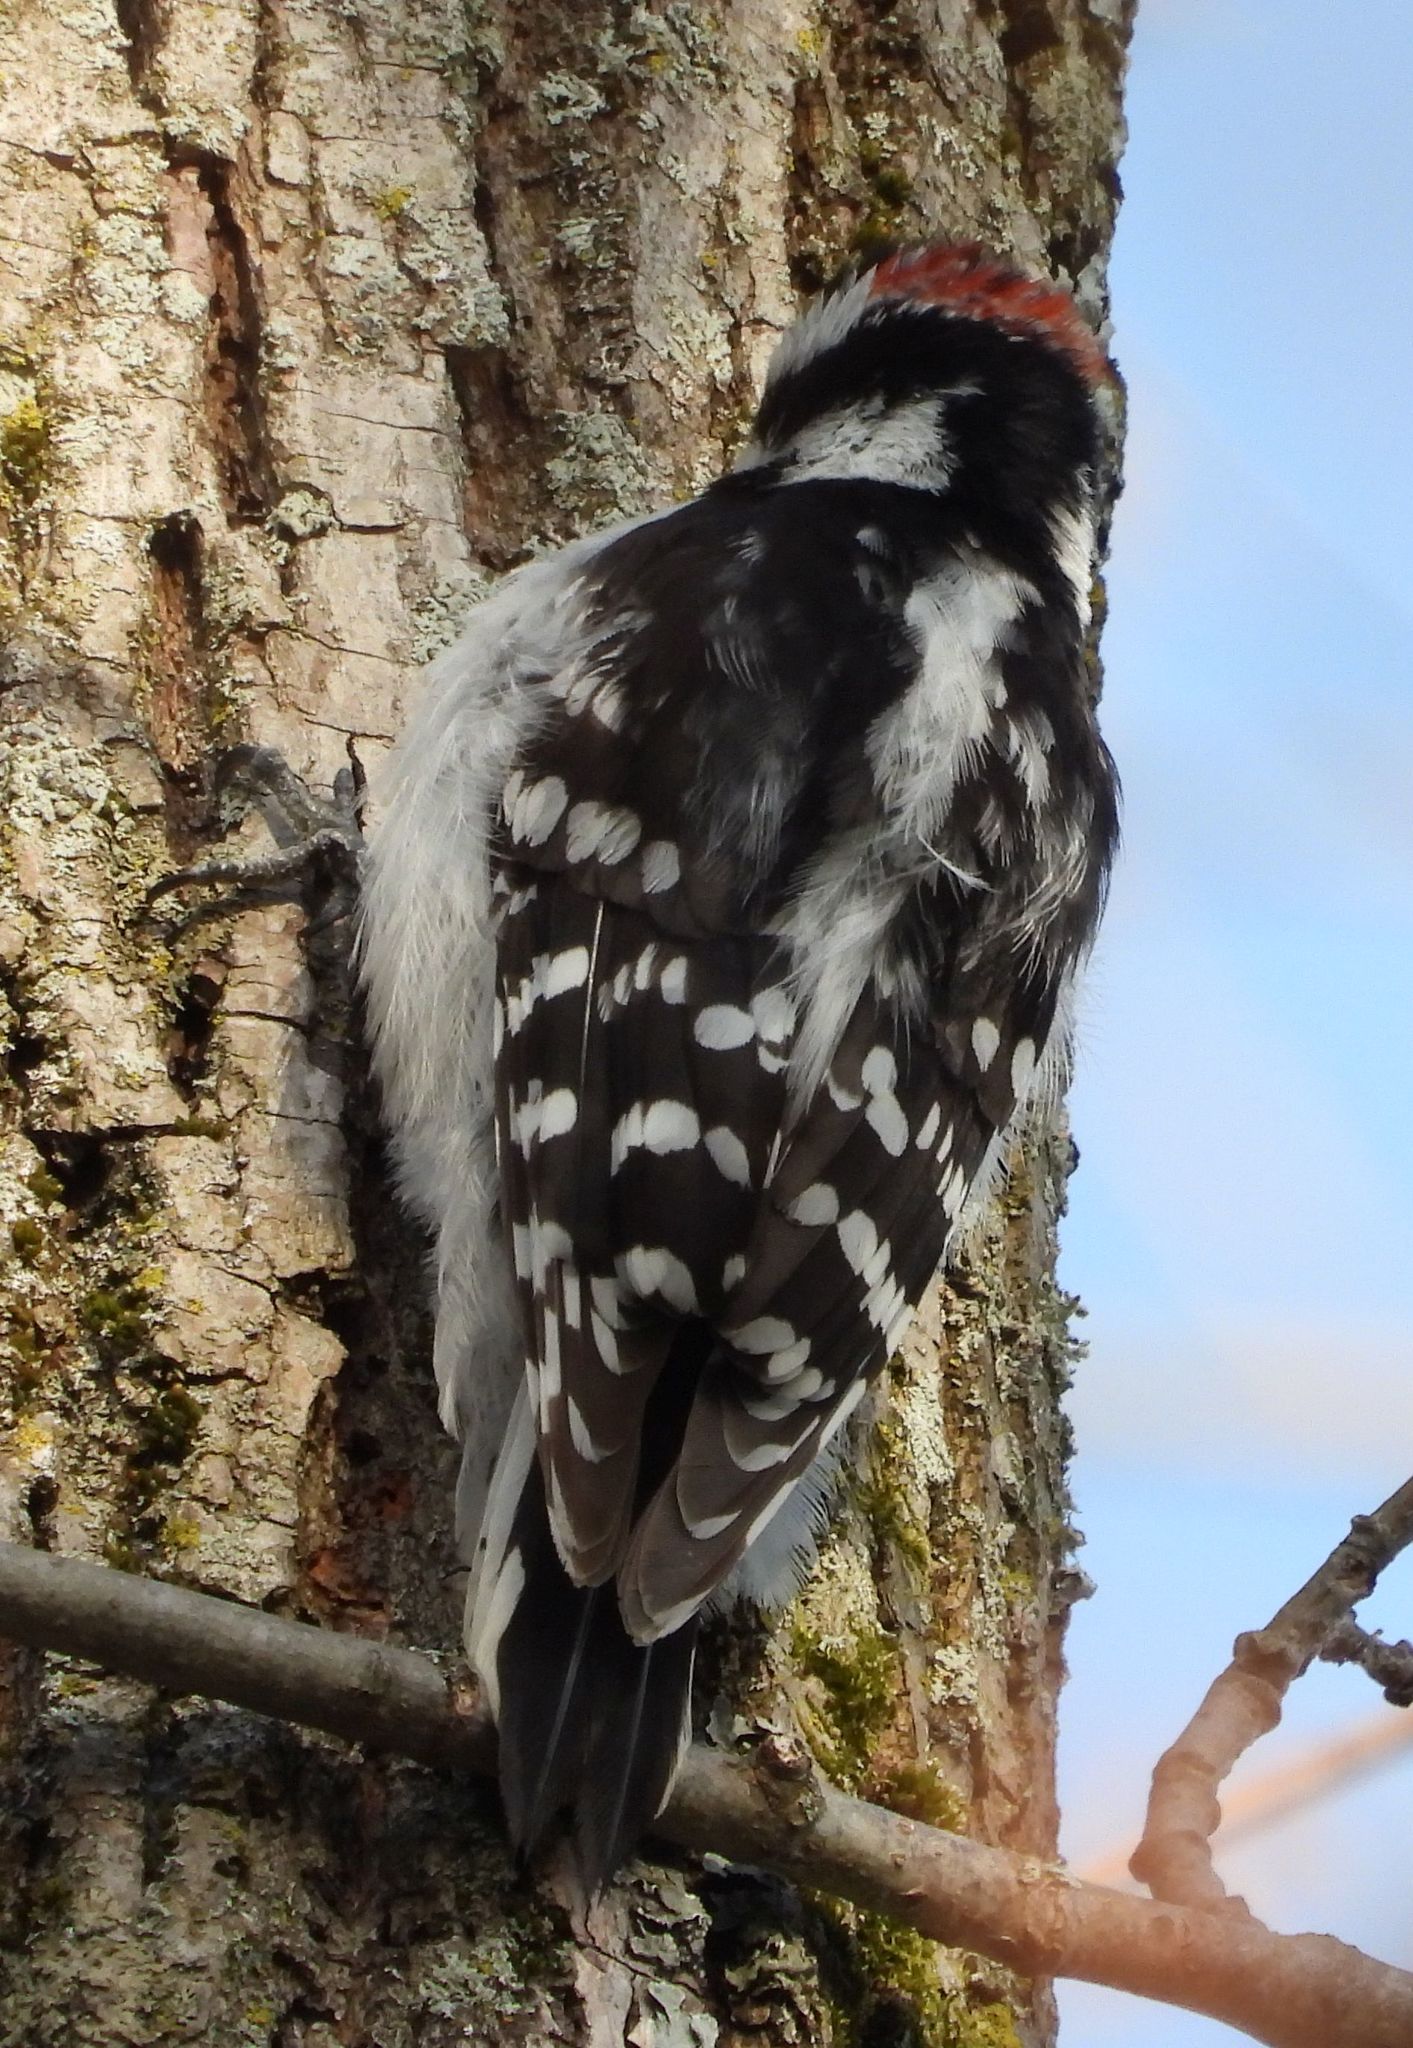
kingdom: Animalia
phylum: Chordata
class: Aves
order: Piciformes
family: Picidae
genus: Dryobates
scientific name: Dryobates pubescens
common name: Downy woodpecker
